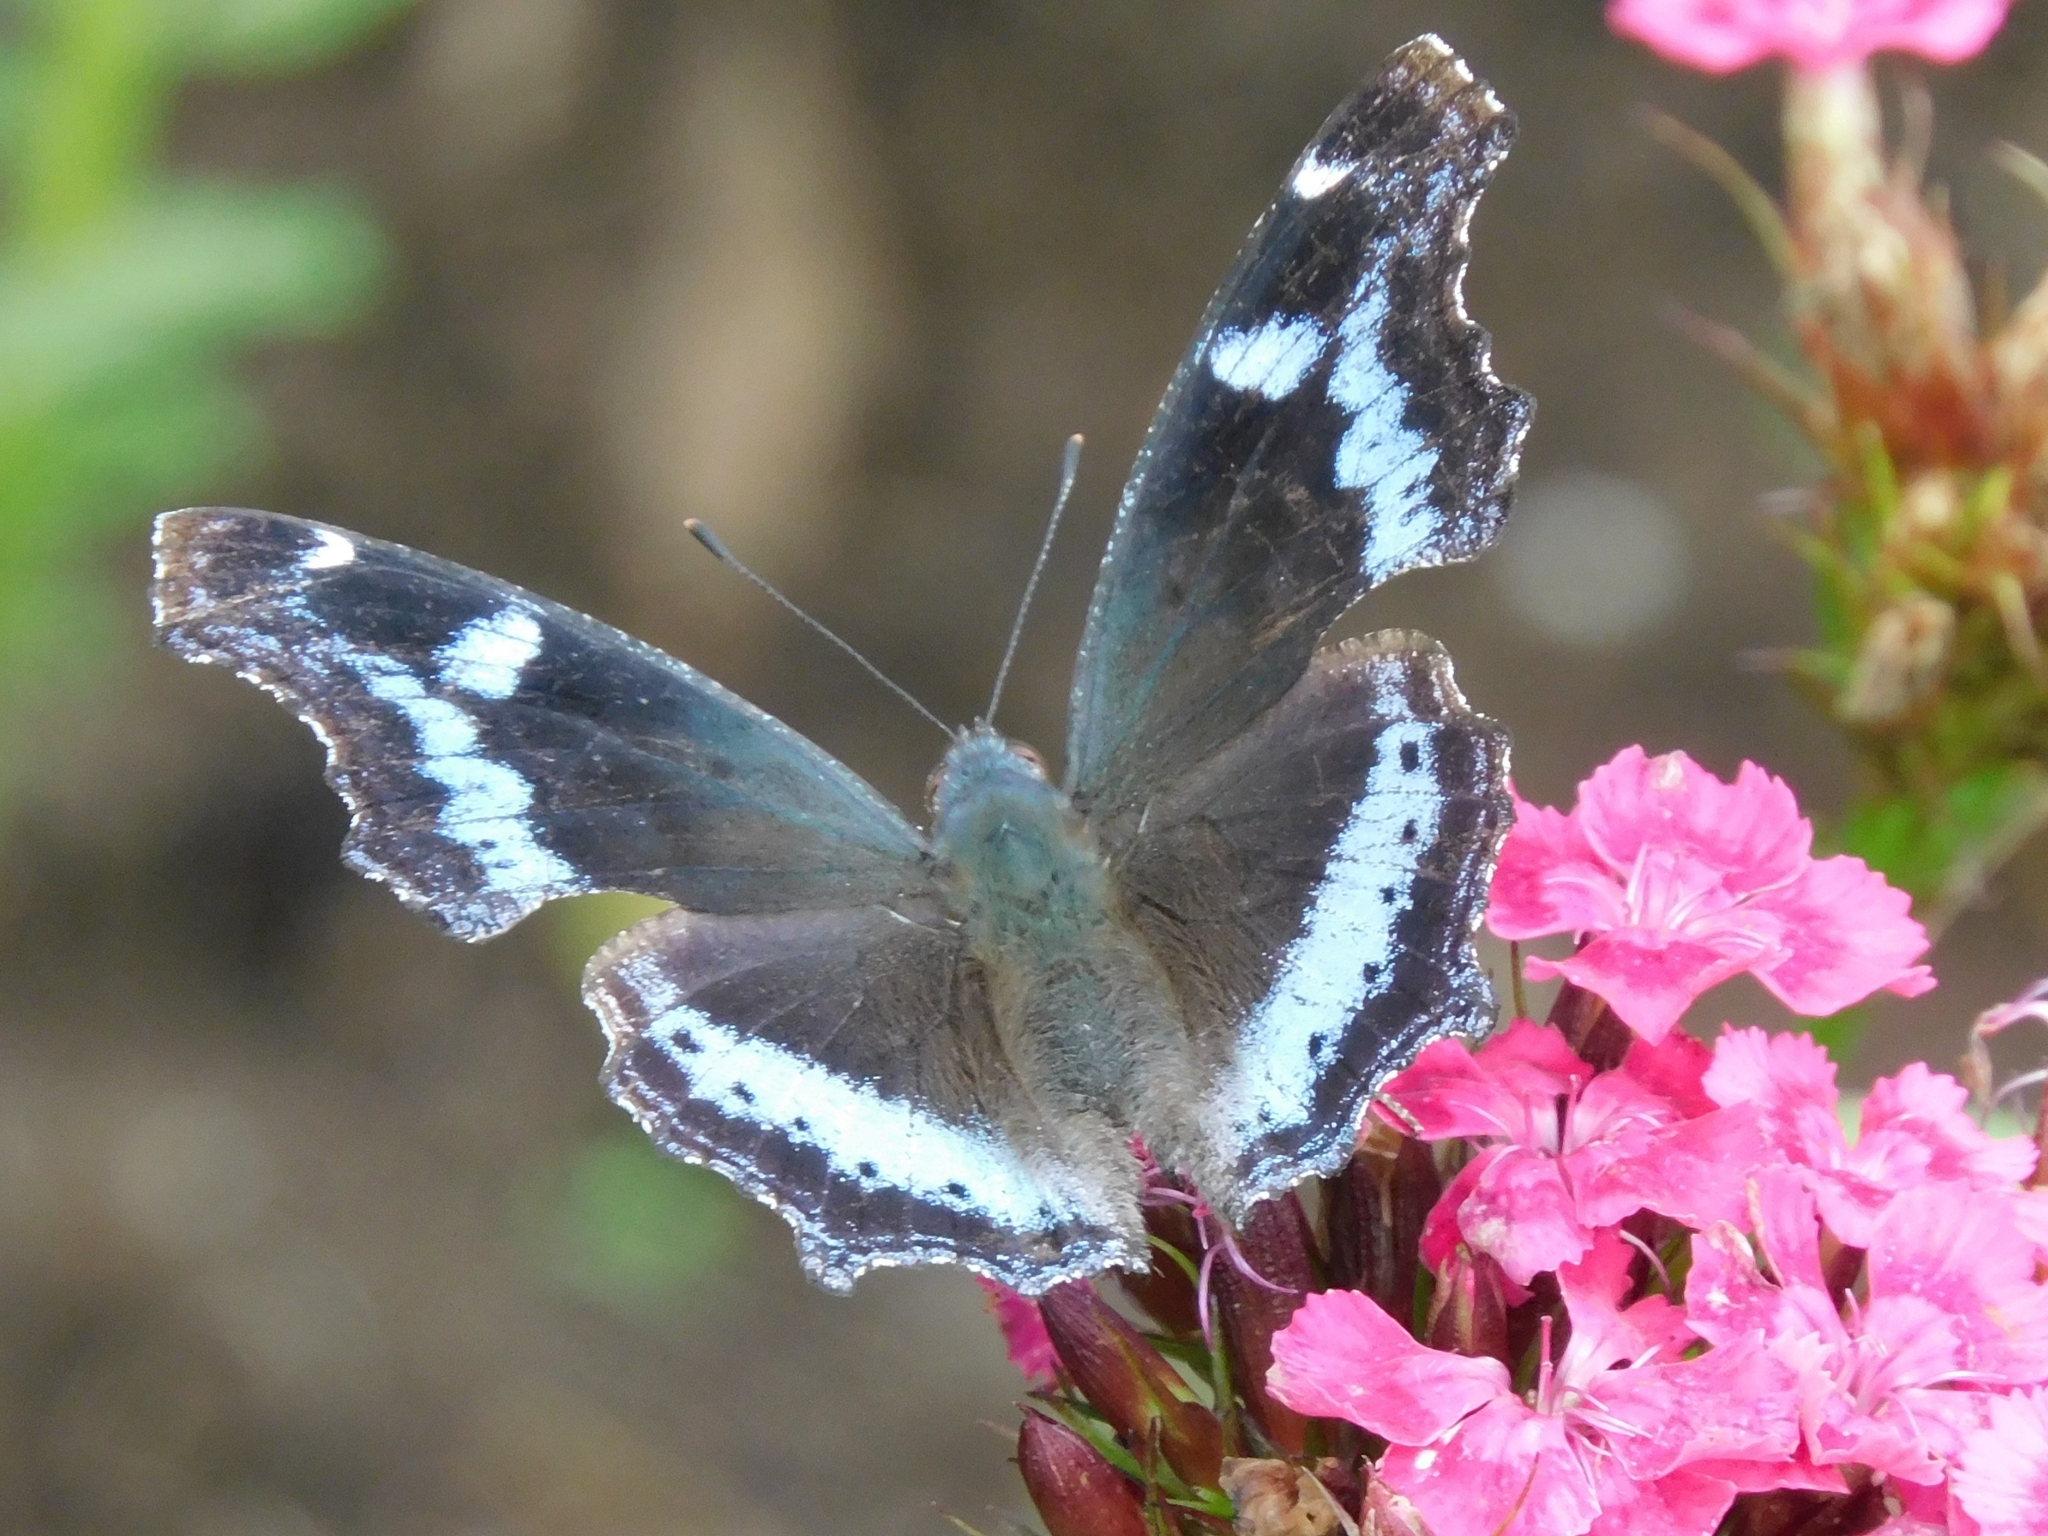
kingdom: Animalia
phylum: Arthropoda
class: Insecta
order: Lepidoptera
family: Nymphalidae
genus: Vanessa
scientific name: Vanessa Kaniska canace
